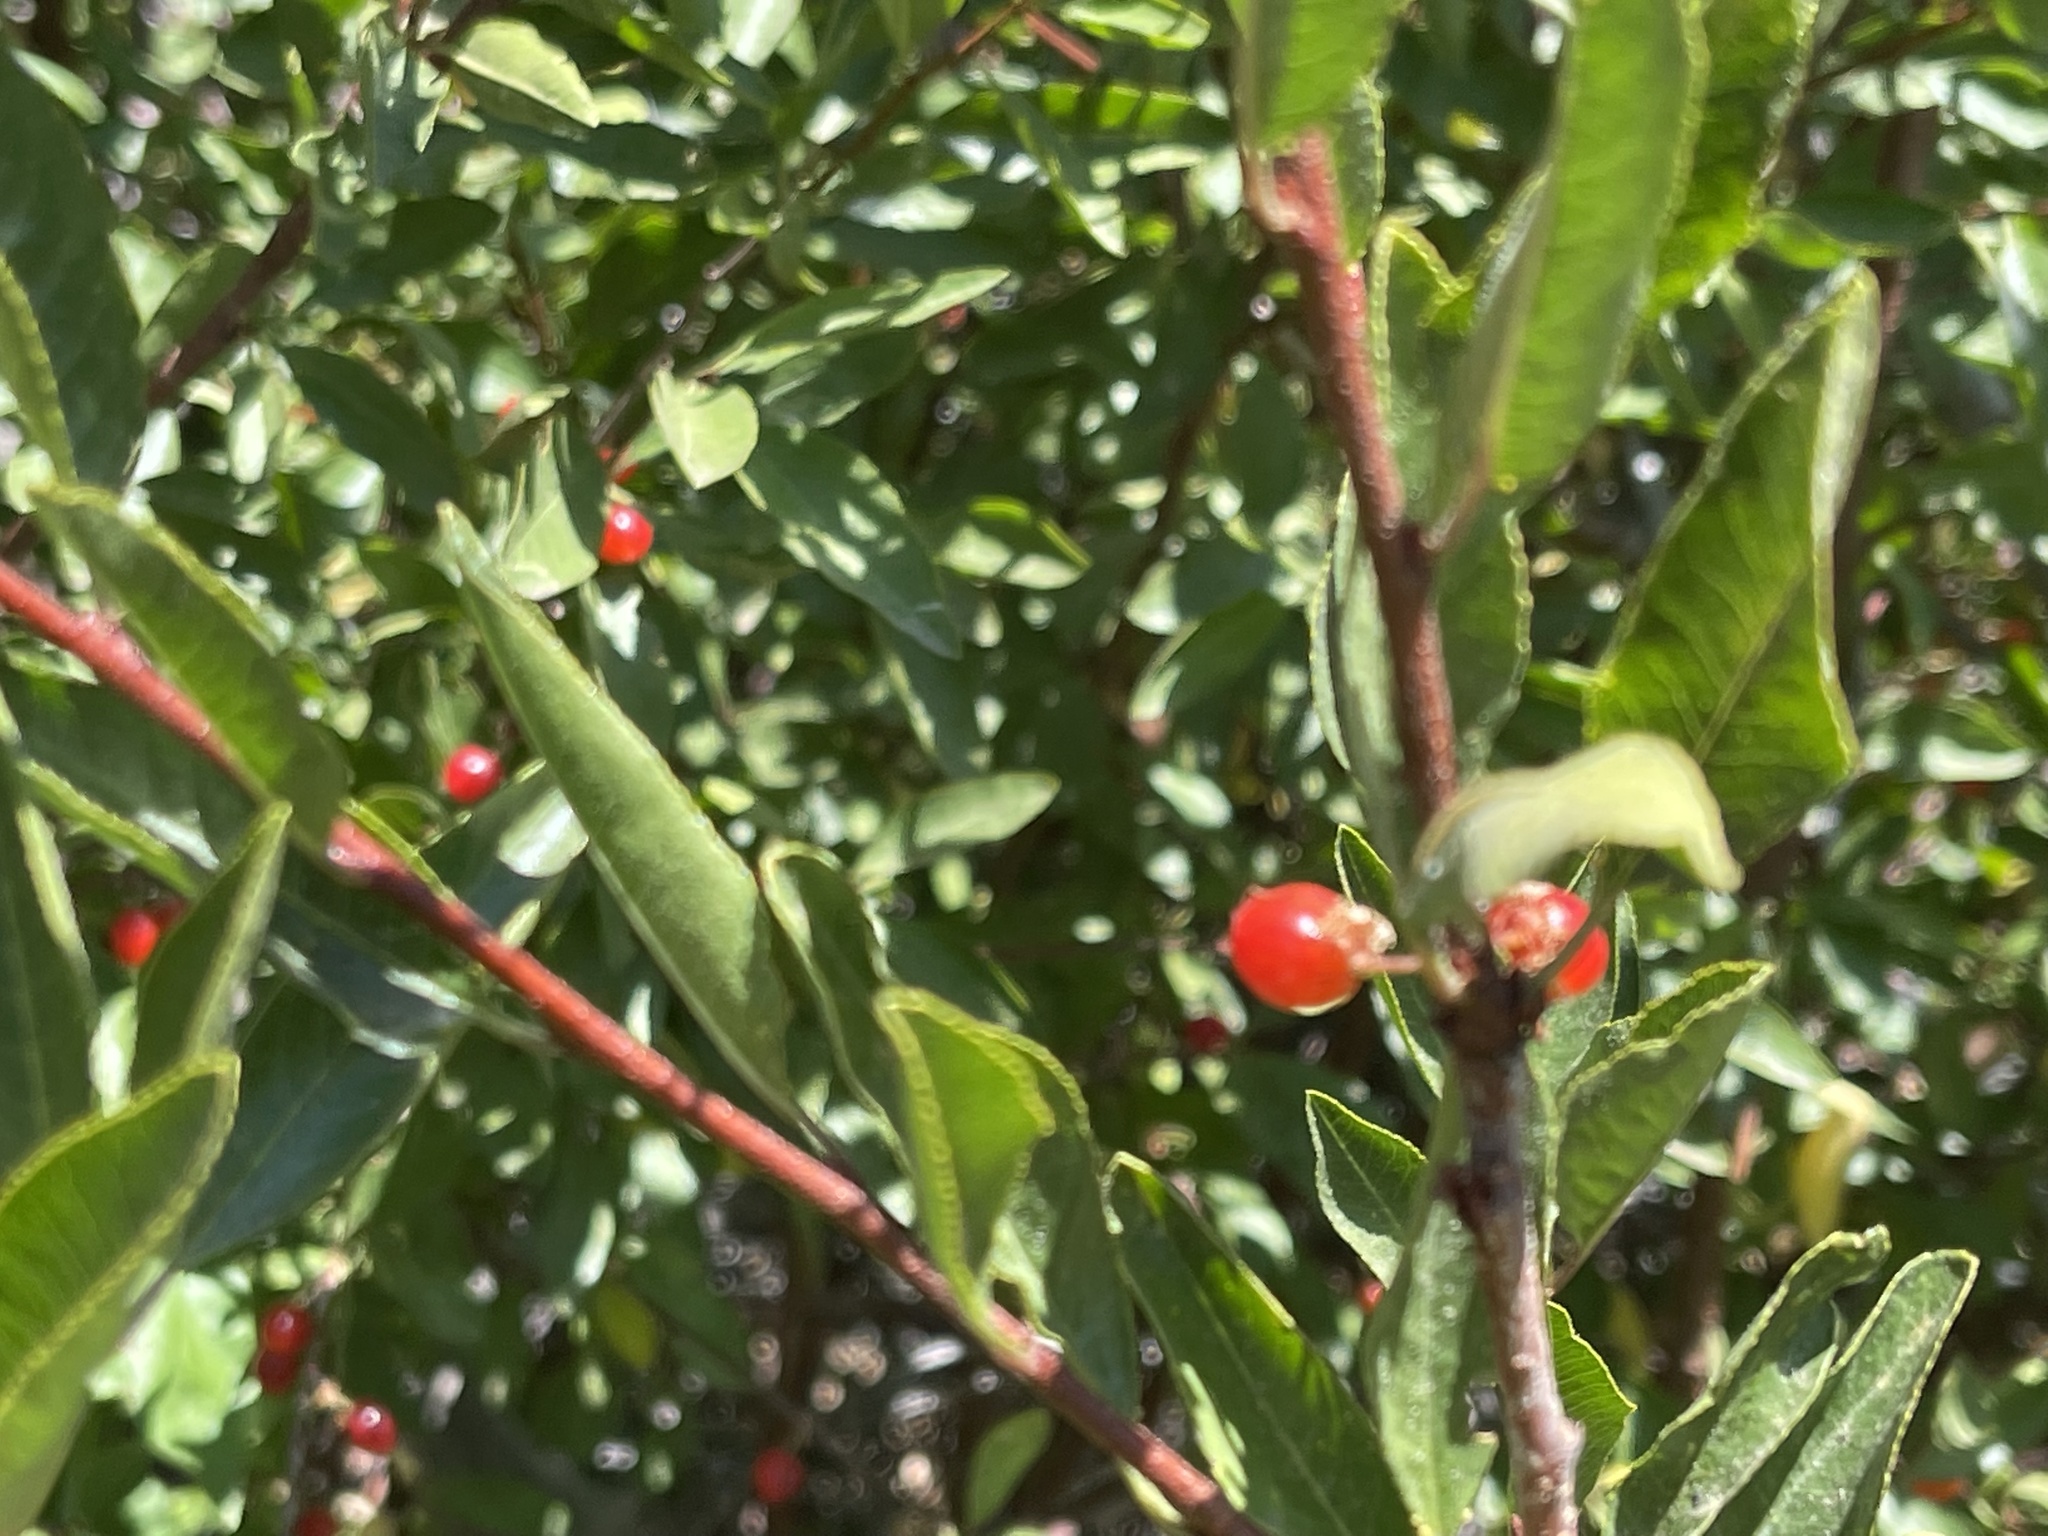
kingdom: Plantae
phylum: Tracheophyta
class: Magnoliopsida
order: Rosales
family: Rosaceae
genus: Prunus
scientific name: Prunus emarginata
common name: Bitter cherry
